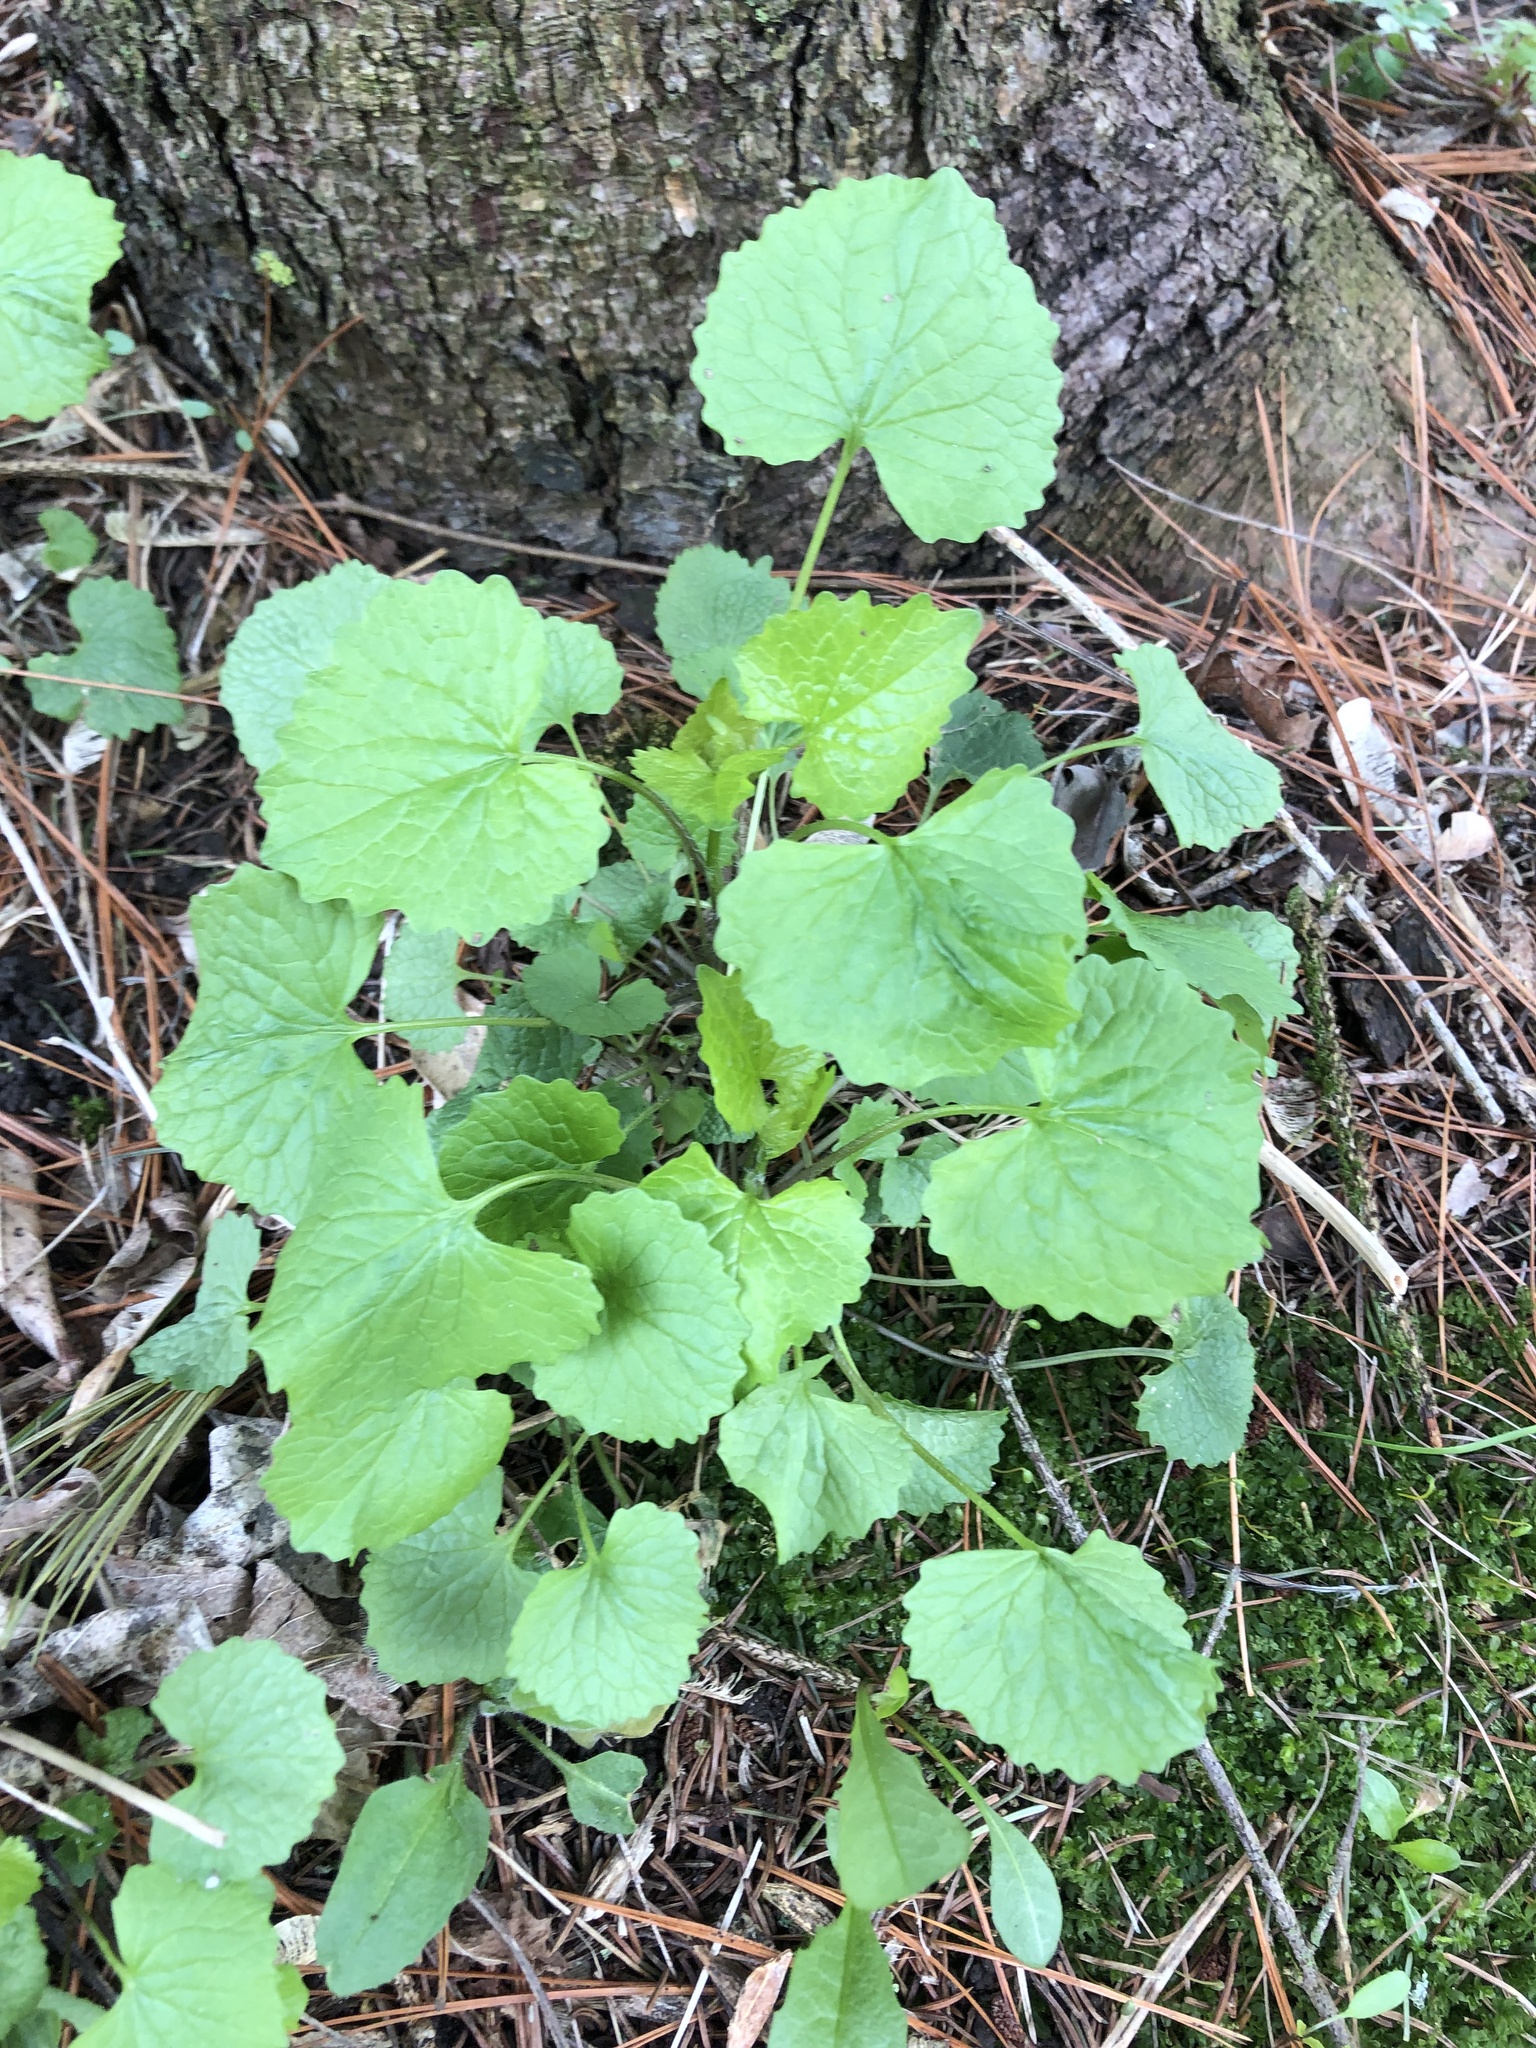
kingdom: Plantae
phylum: Tracheophyta
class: Magnoliopsida
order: Brassicales
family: Brassicaceae
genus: Alliaria
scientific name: Alliaria petiolata
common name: Garlic mustard
